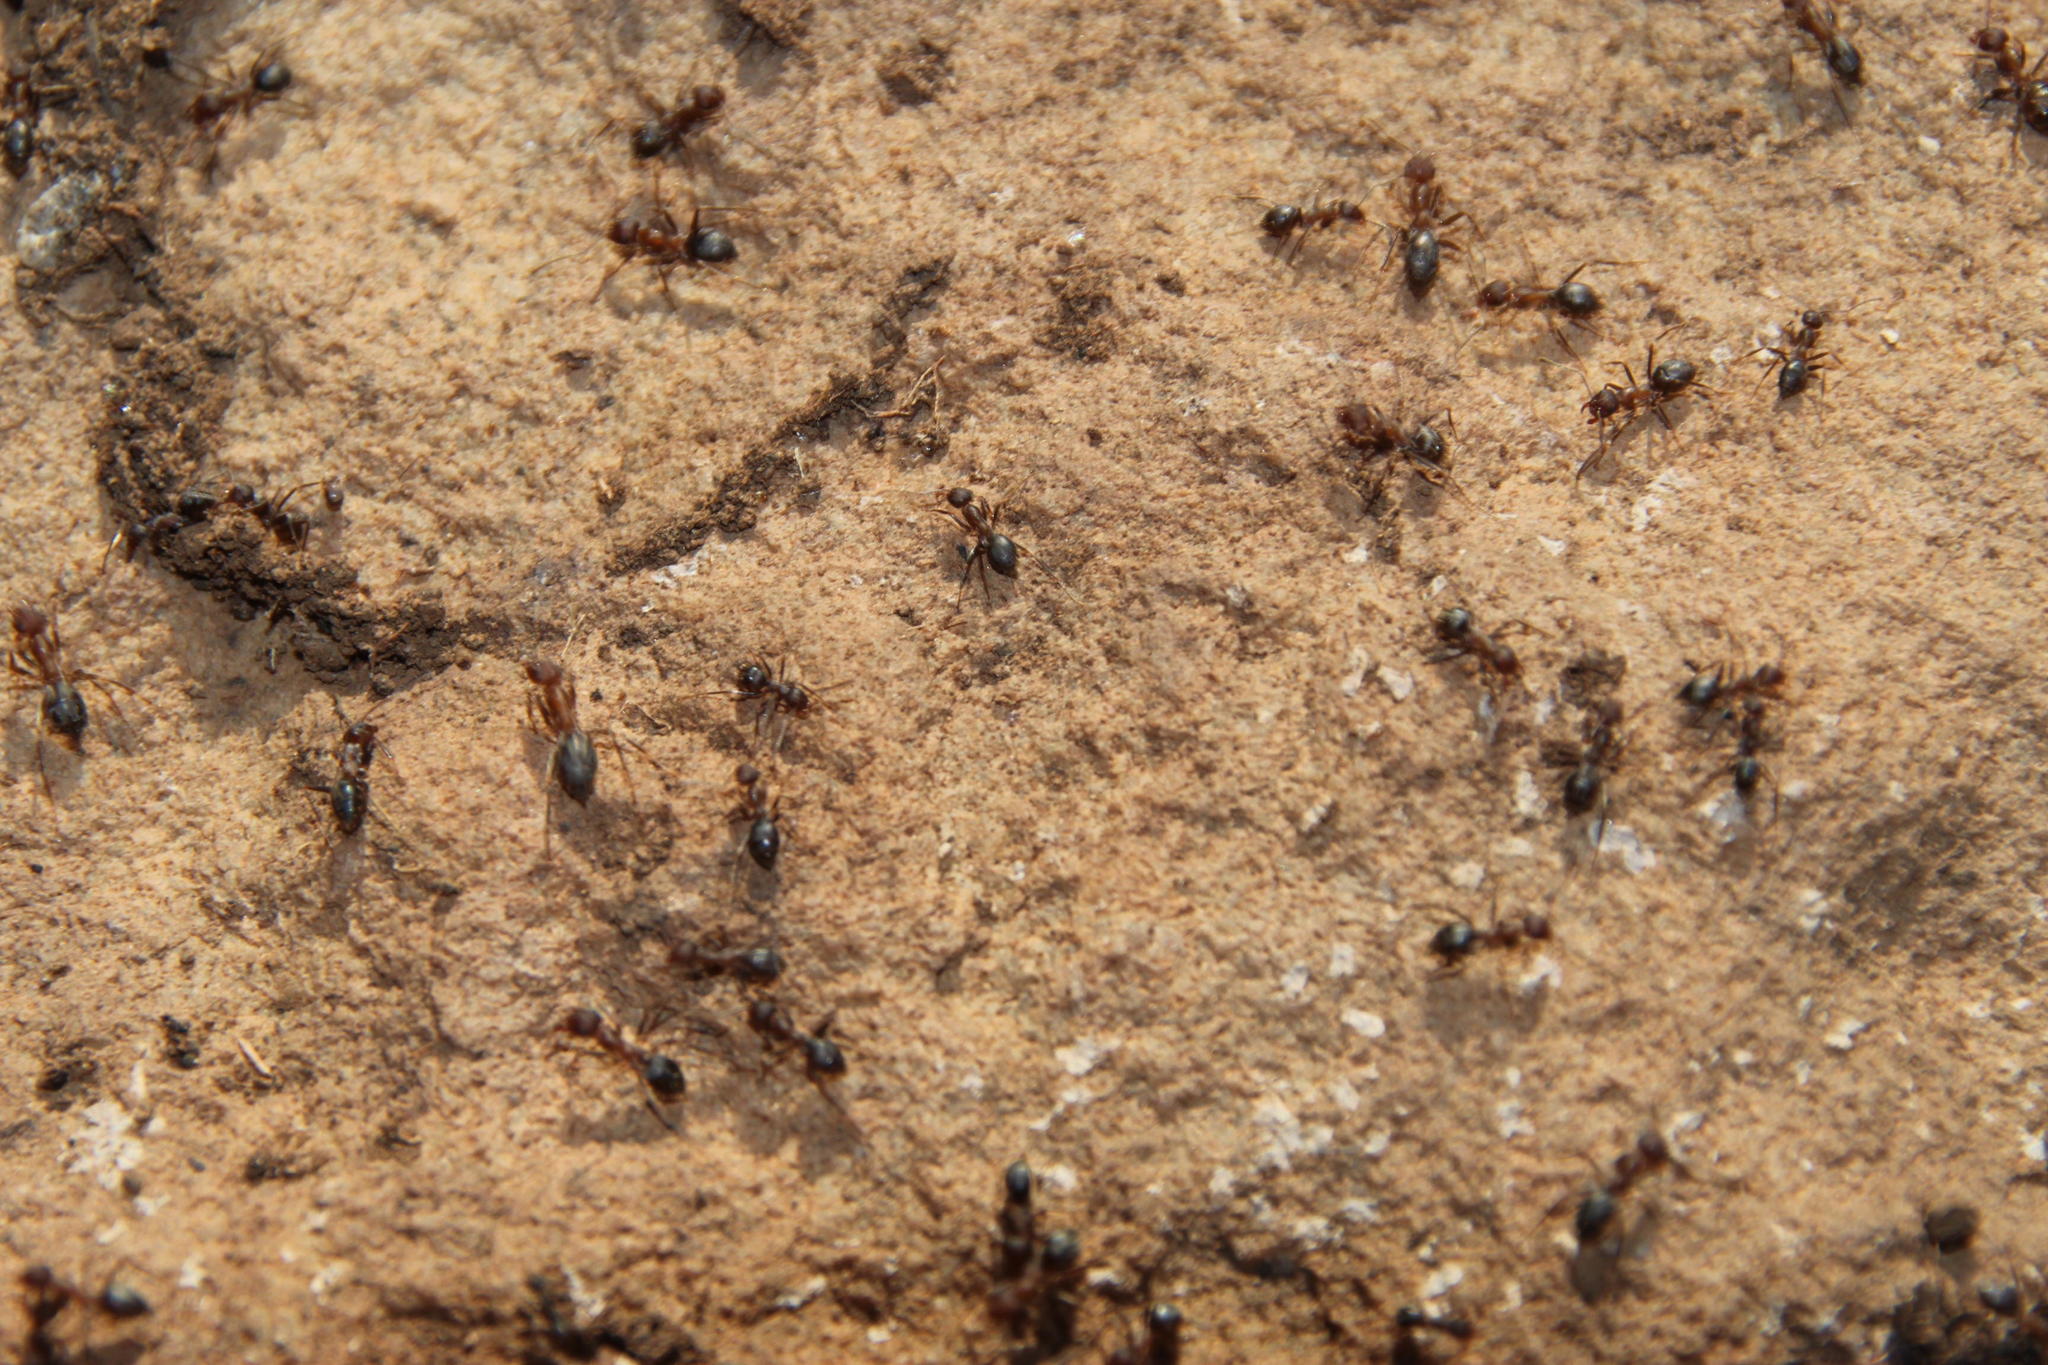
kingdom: Animalia
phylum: Arthropoda
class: Insecta
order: Hymenoptera
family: Formicidae
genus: Anoplolepis
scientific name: Anoplolepis custodiens
